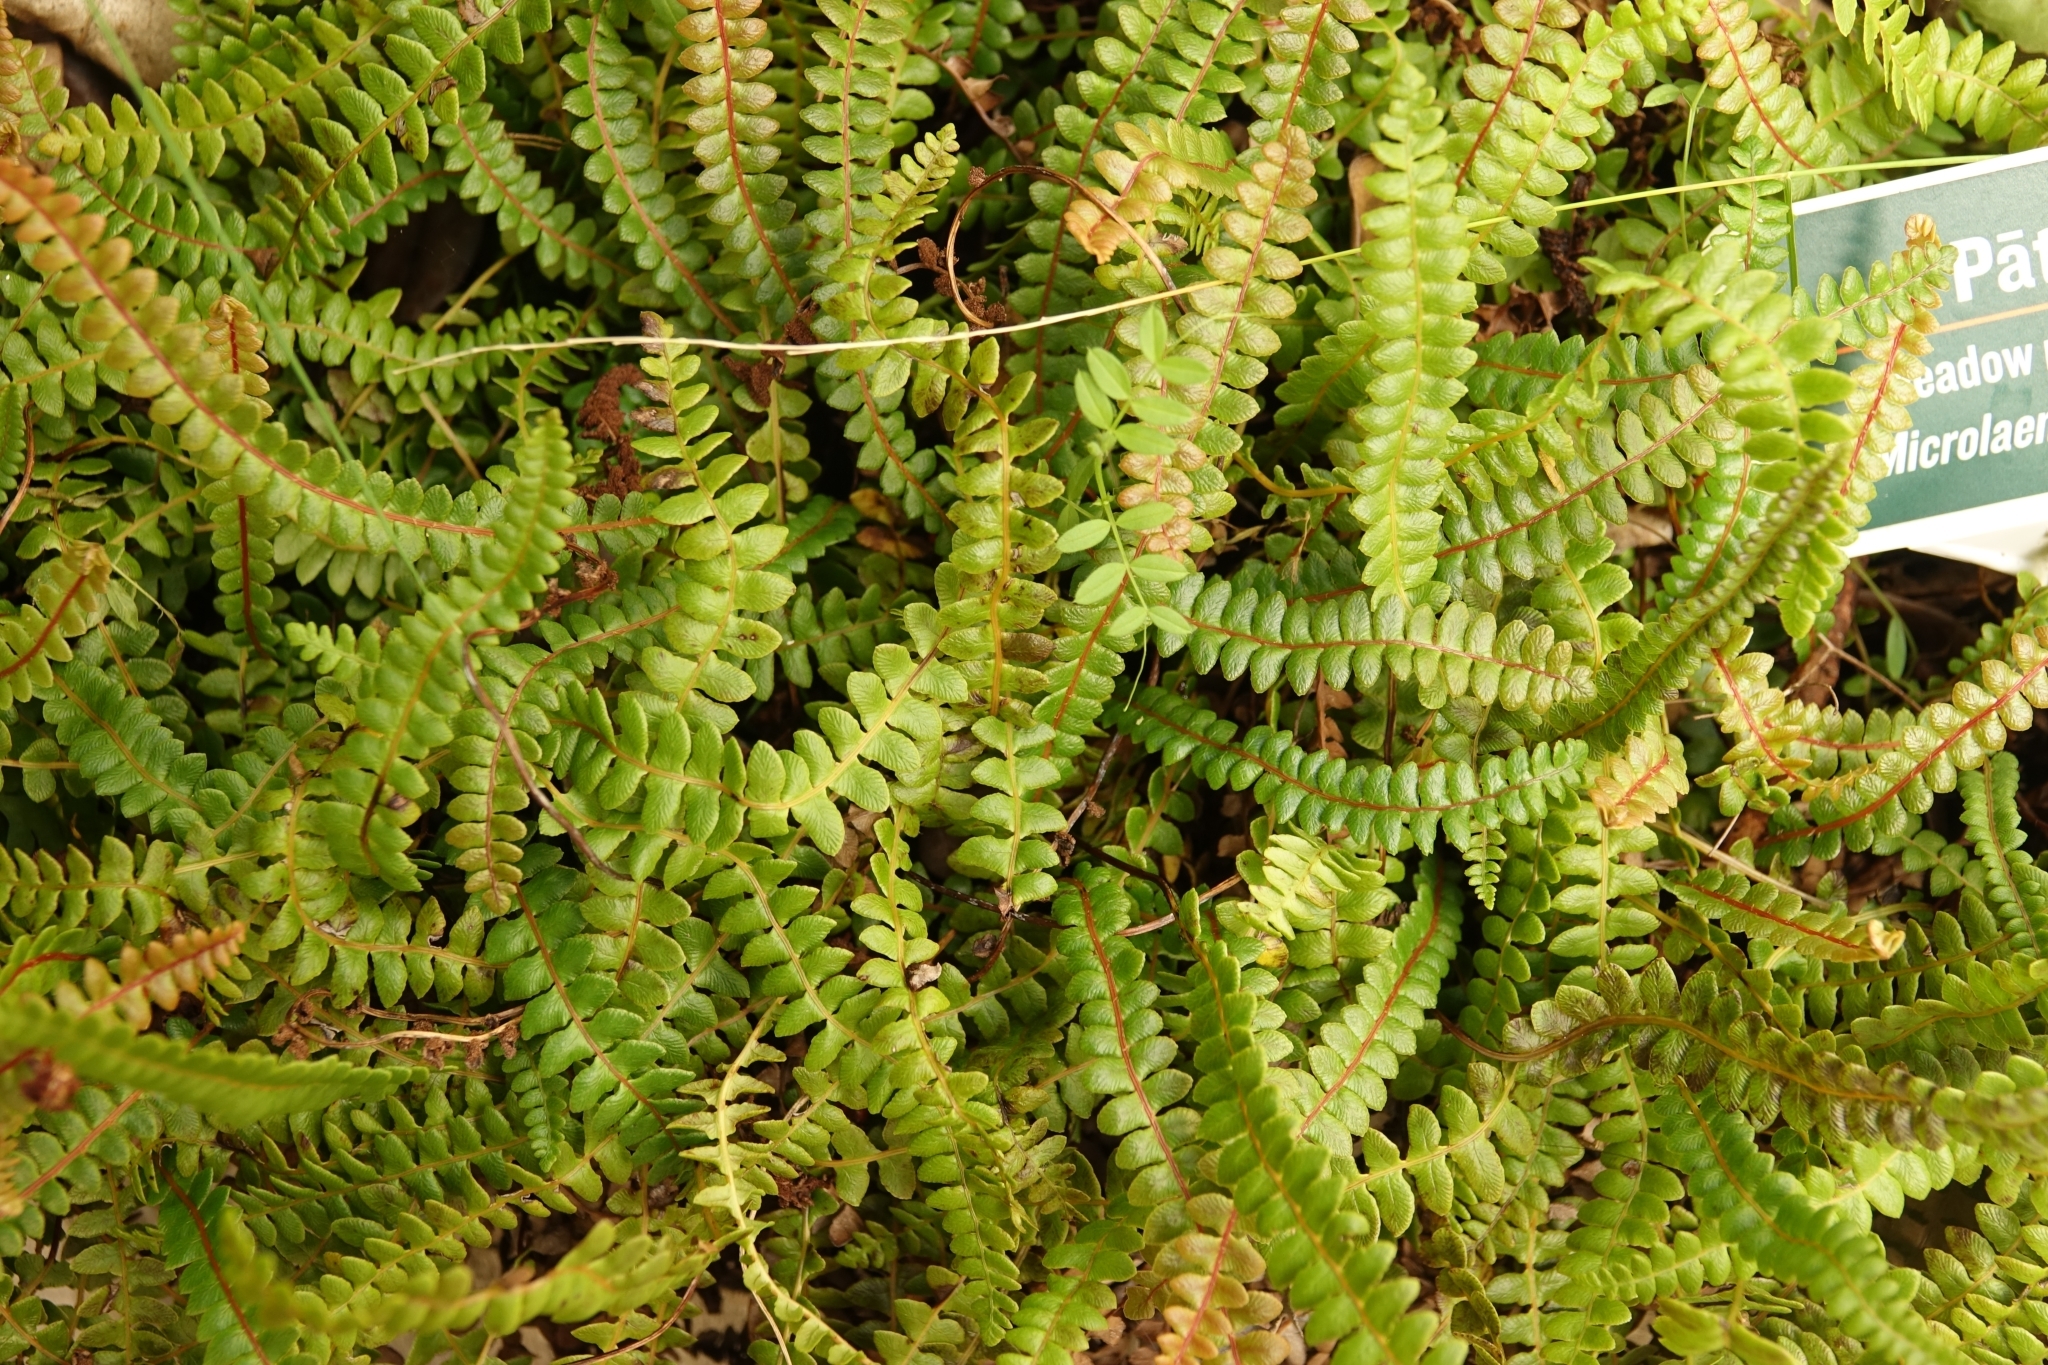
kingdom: Plantae
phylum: Tracheophyta
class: Polypodiopsida
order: Polypodiales
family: Blechnaceae
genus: Austroblechnum
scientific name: Austroblechnum penna-marina
